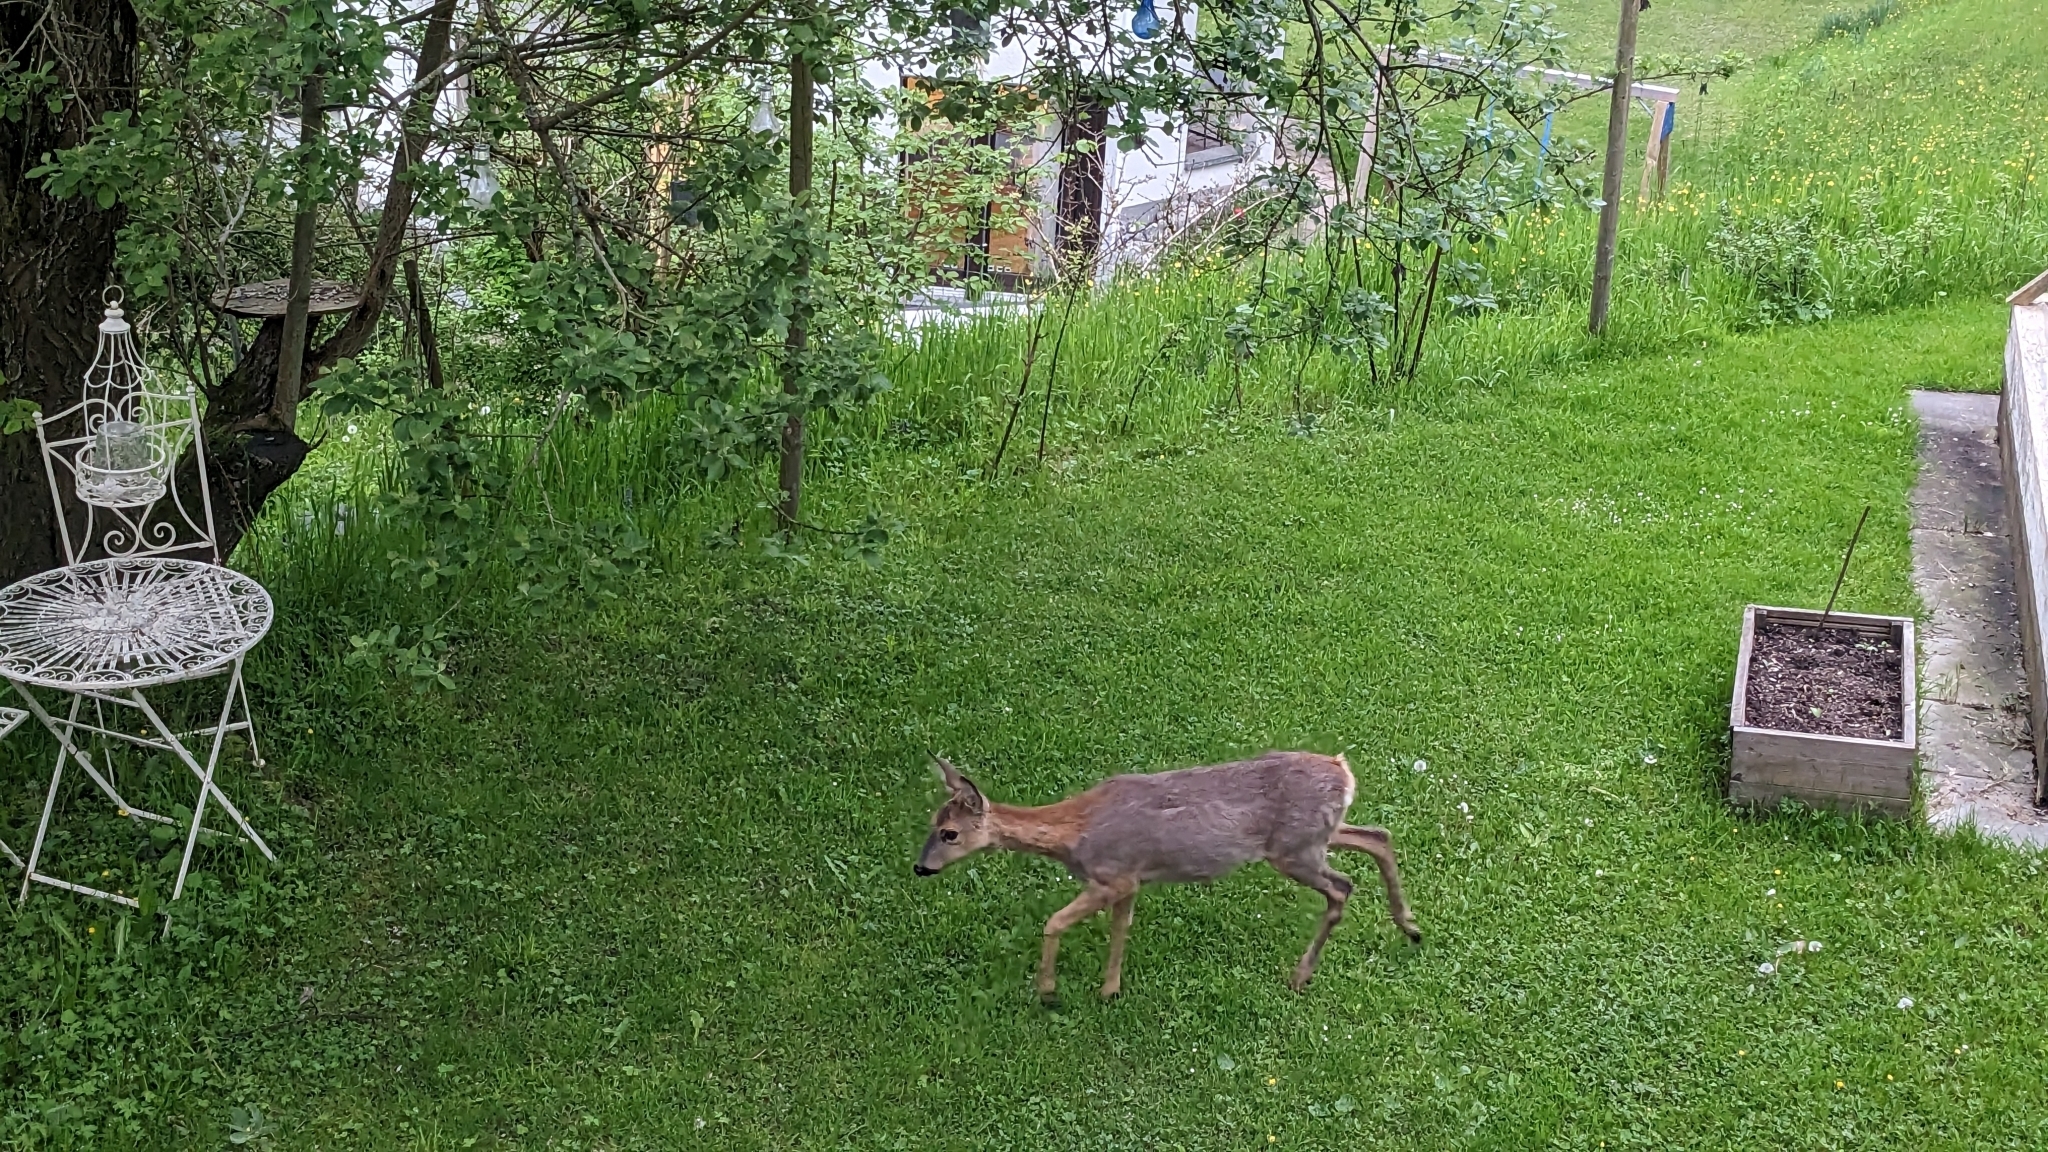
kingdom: Animalia
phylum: Chordata
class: Mammalia
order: Artiodactyla
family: Cervidae
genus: Capreolus
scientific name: Capreolus capreolus
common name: Western roe deer
